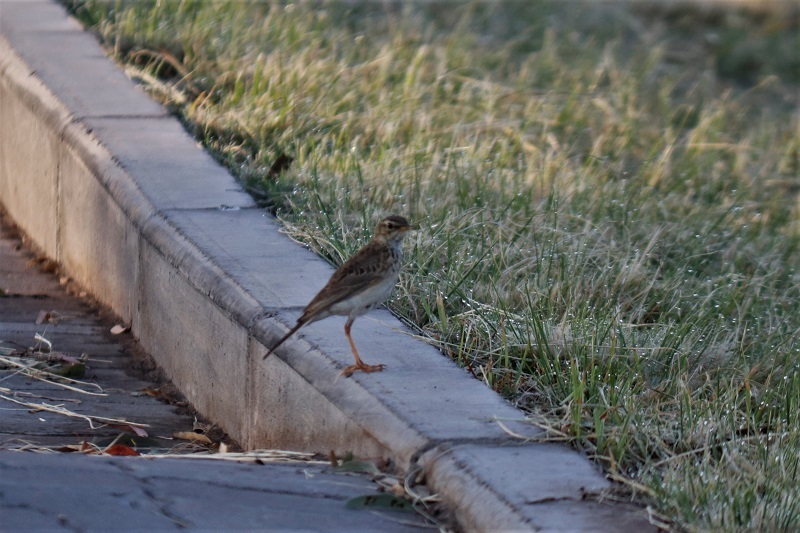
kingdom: Animalia
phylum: Chordata
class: Aves
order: Passeriformes
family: Motacillidae
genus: Anthus
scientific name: Anthus cinnamomeus
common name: African pipit
